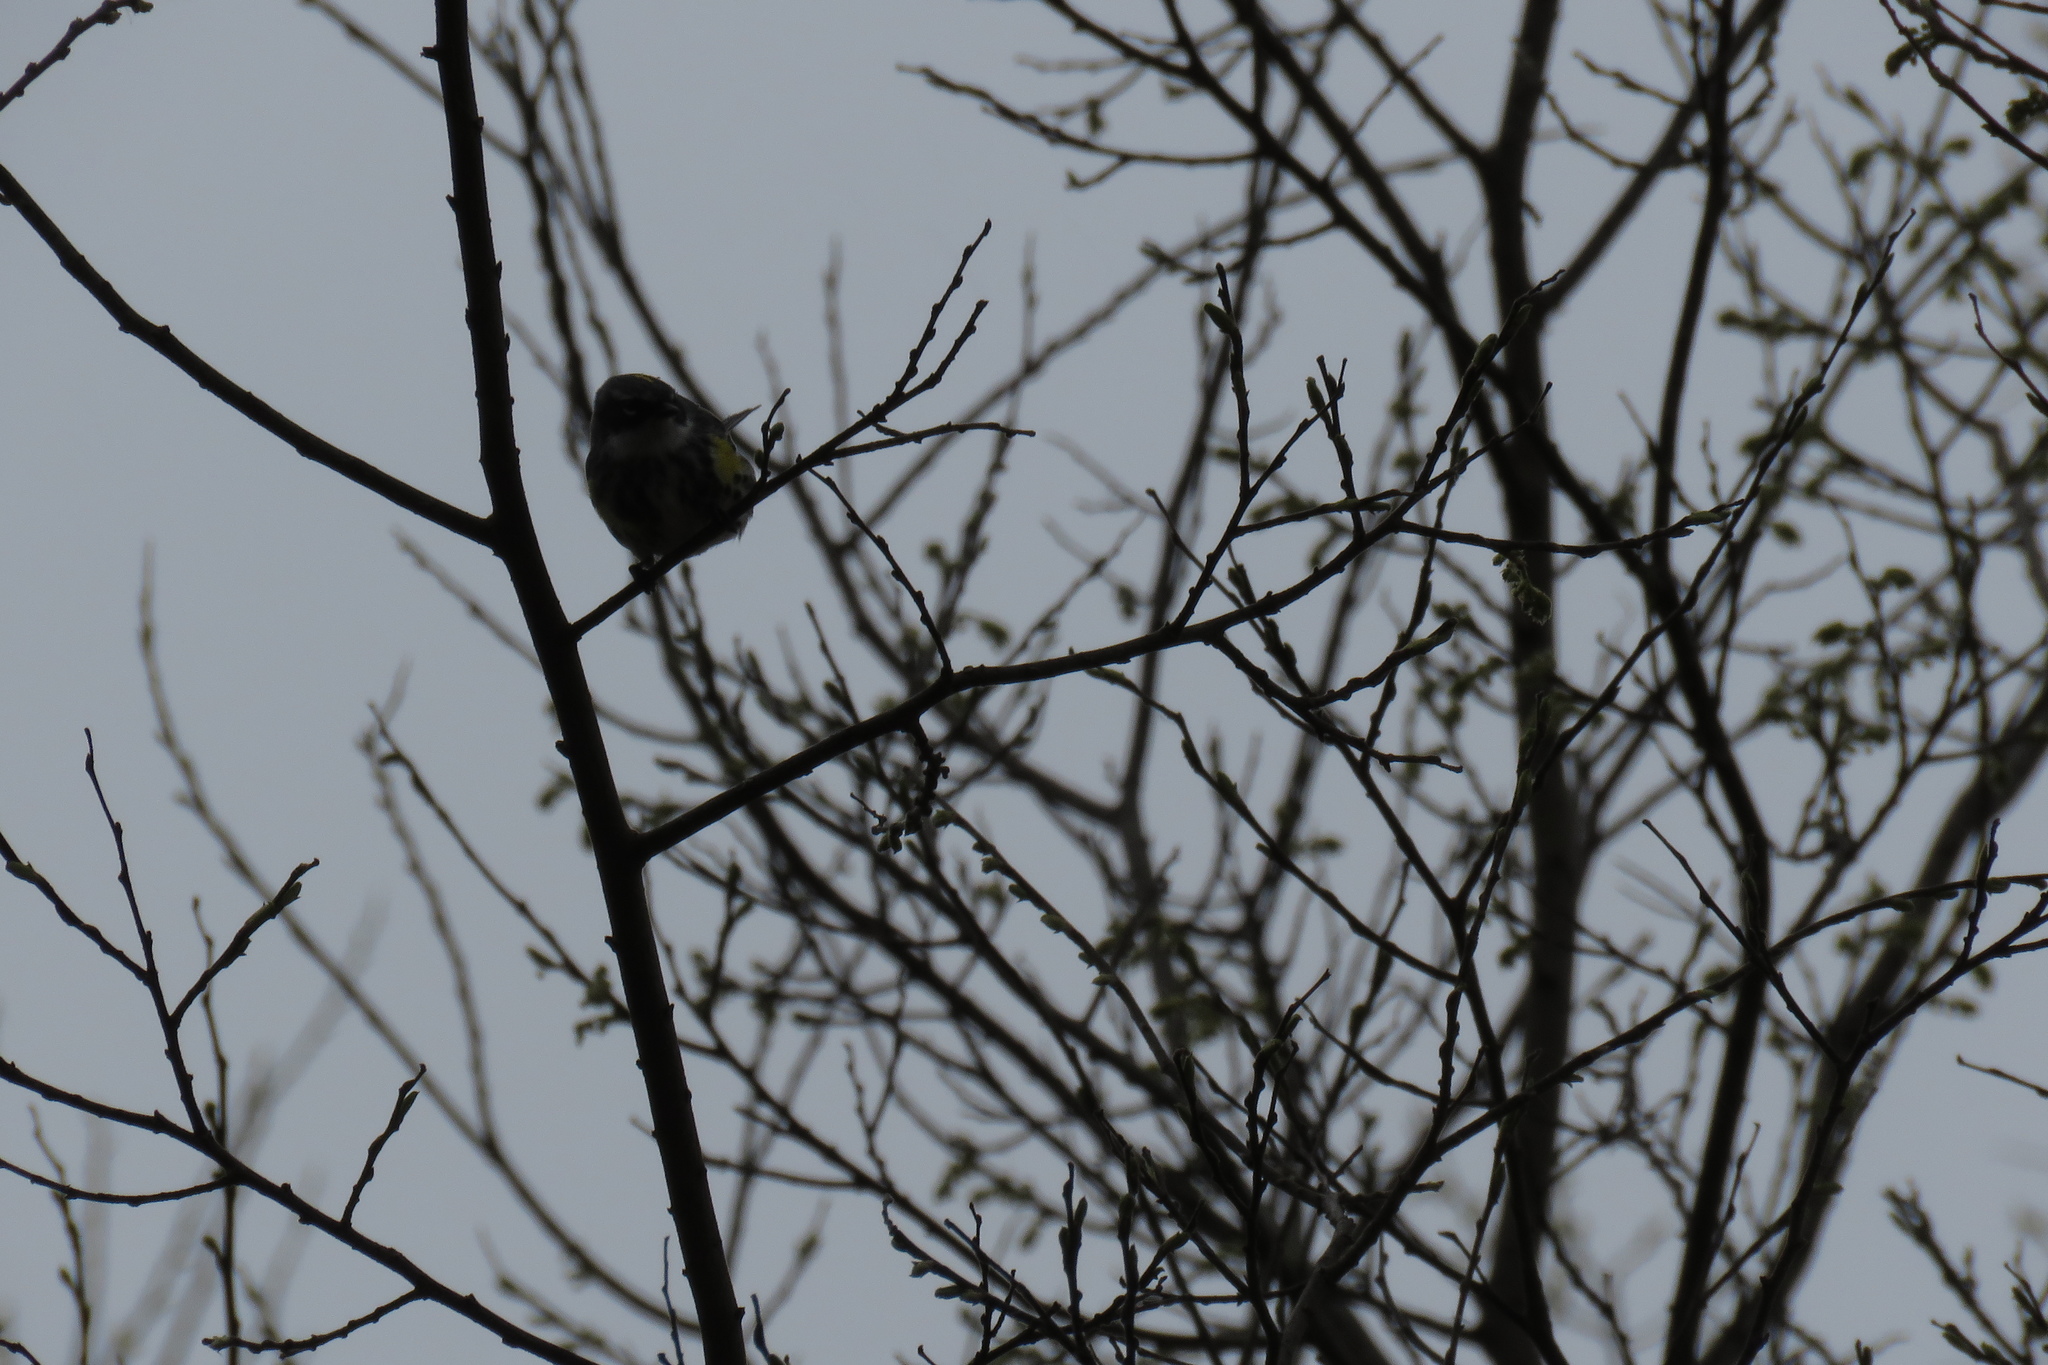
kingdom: Animalia
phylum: Chordata
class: Aves
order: Passeriformes
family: Parulidae
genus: Setophaga
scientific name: Setophaga coronata
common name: Myrtle warbler
